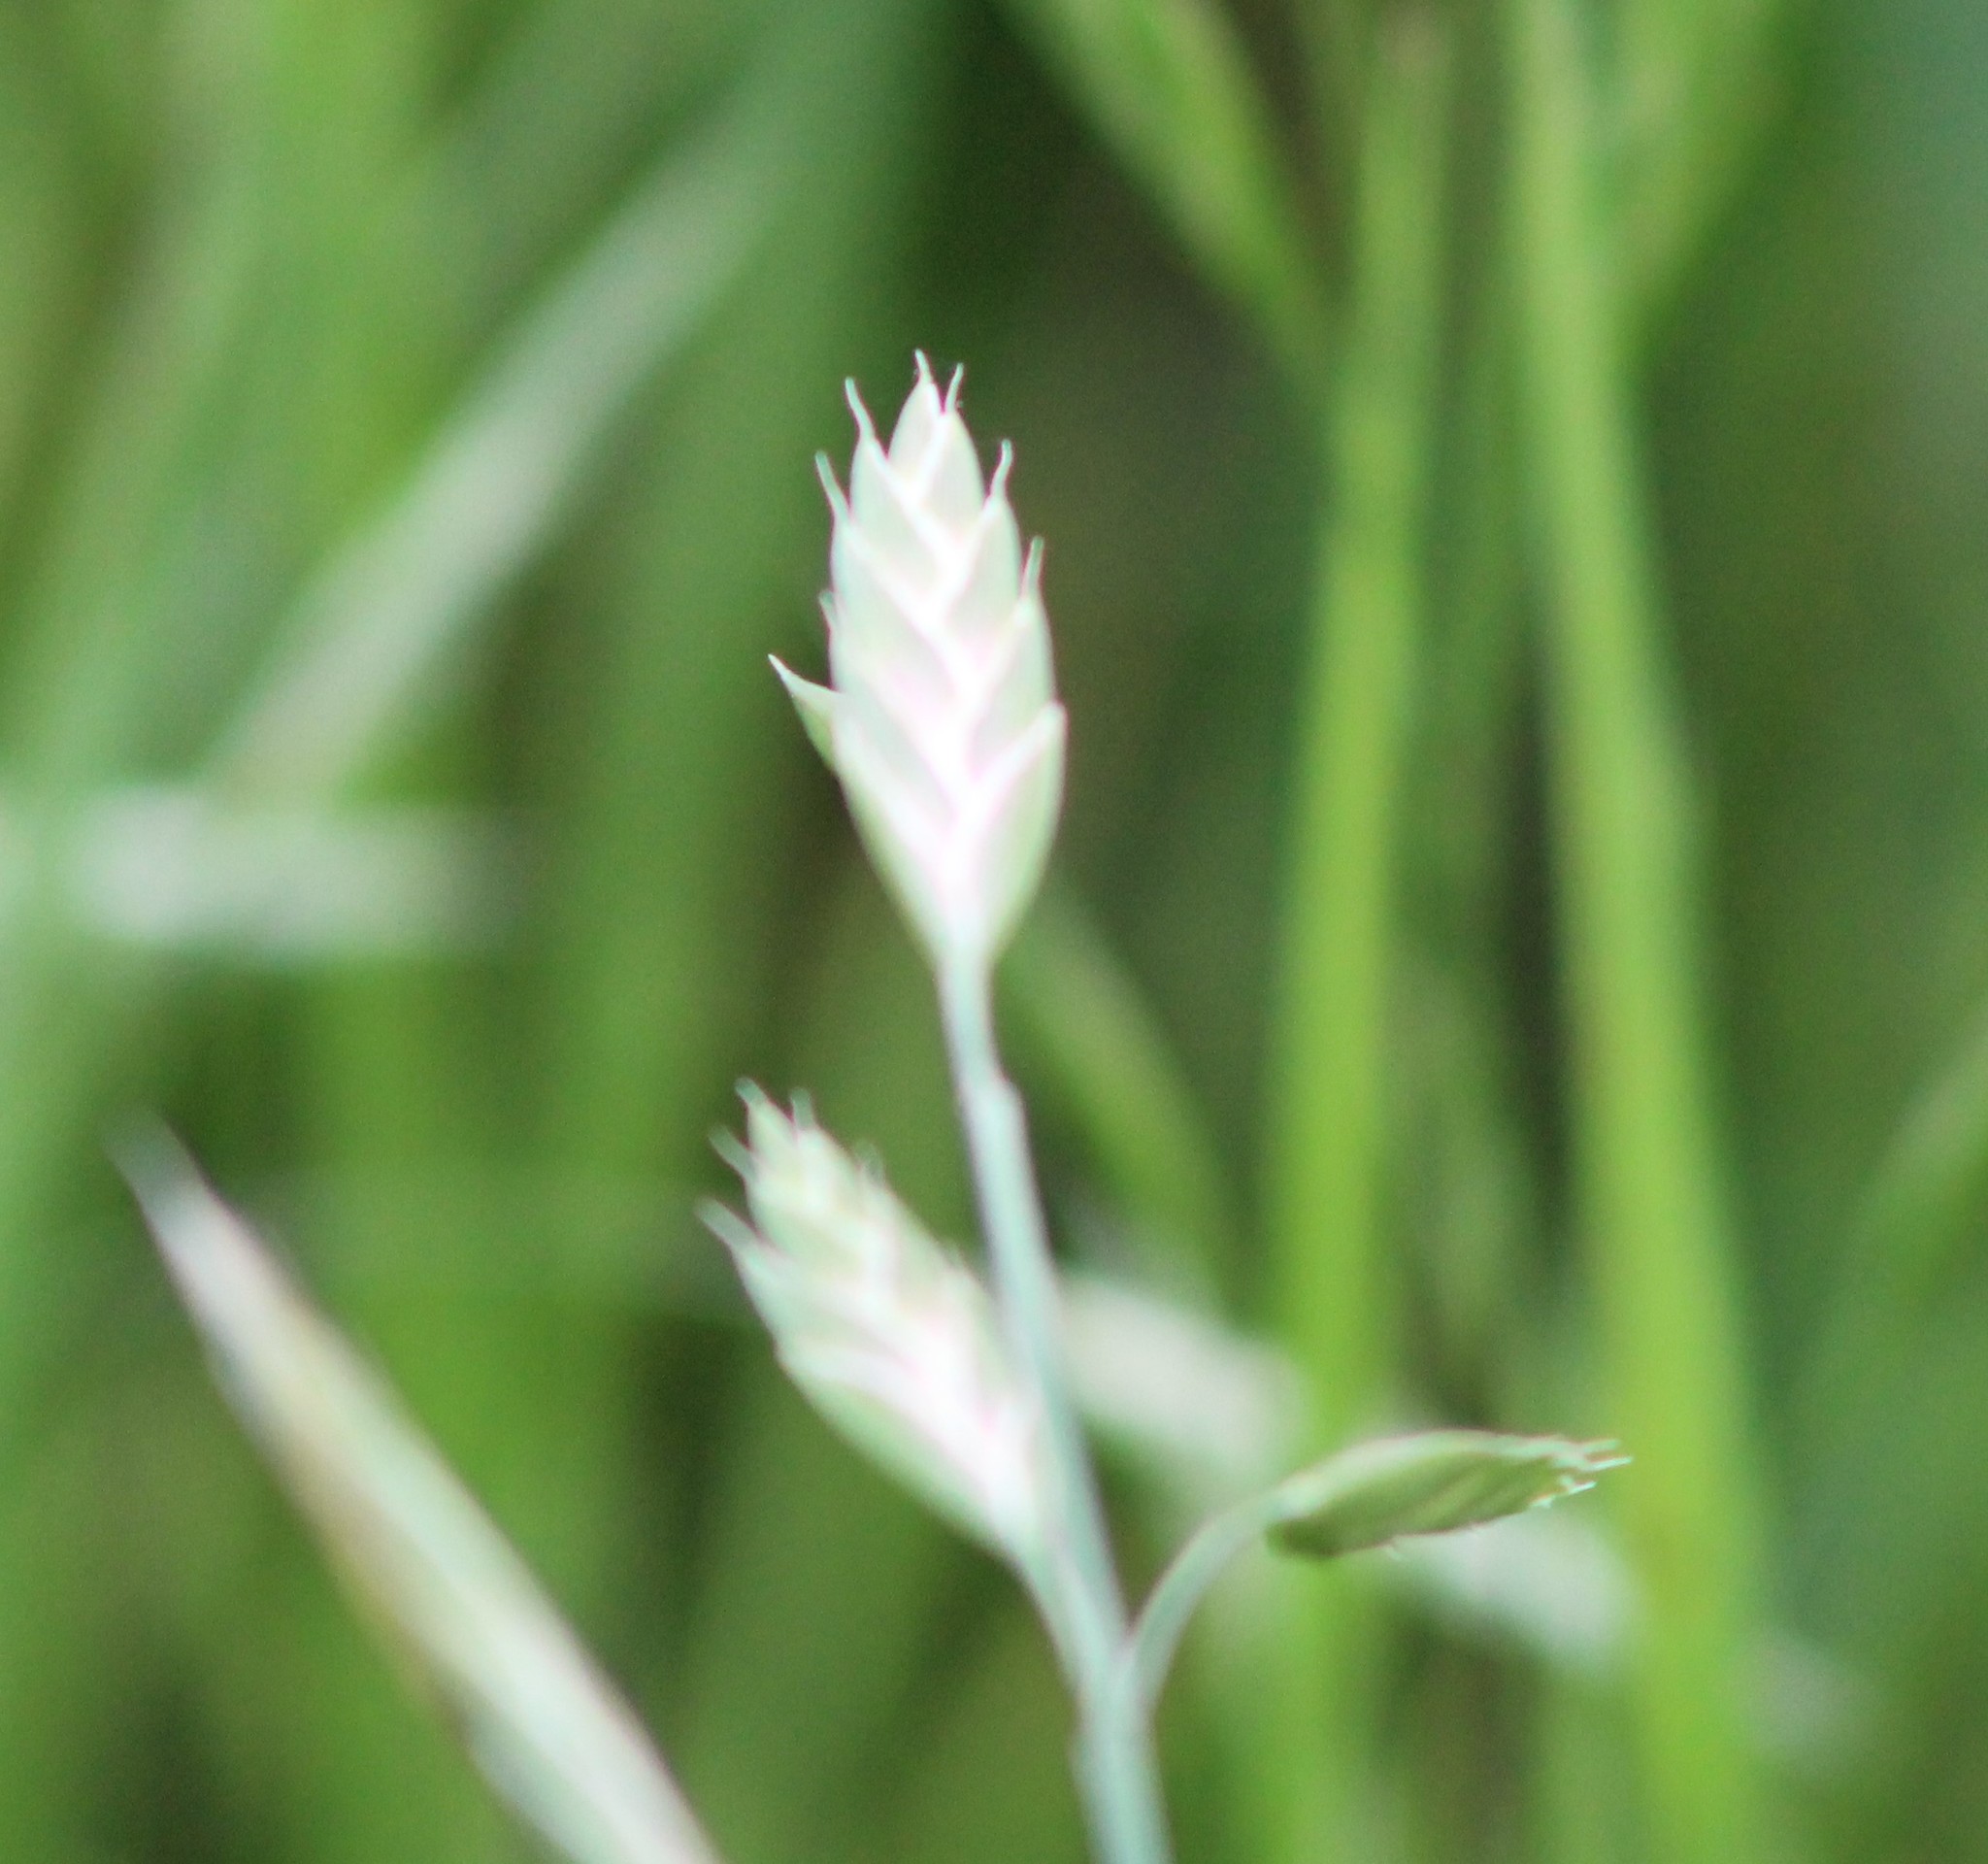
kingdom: Plantae
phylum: Tracheophyta
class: Liliopsida
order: Poales
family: Poaceae
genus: Bromus
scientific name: Bromus catharticus
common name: Rescuegrass
